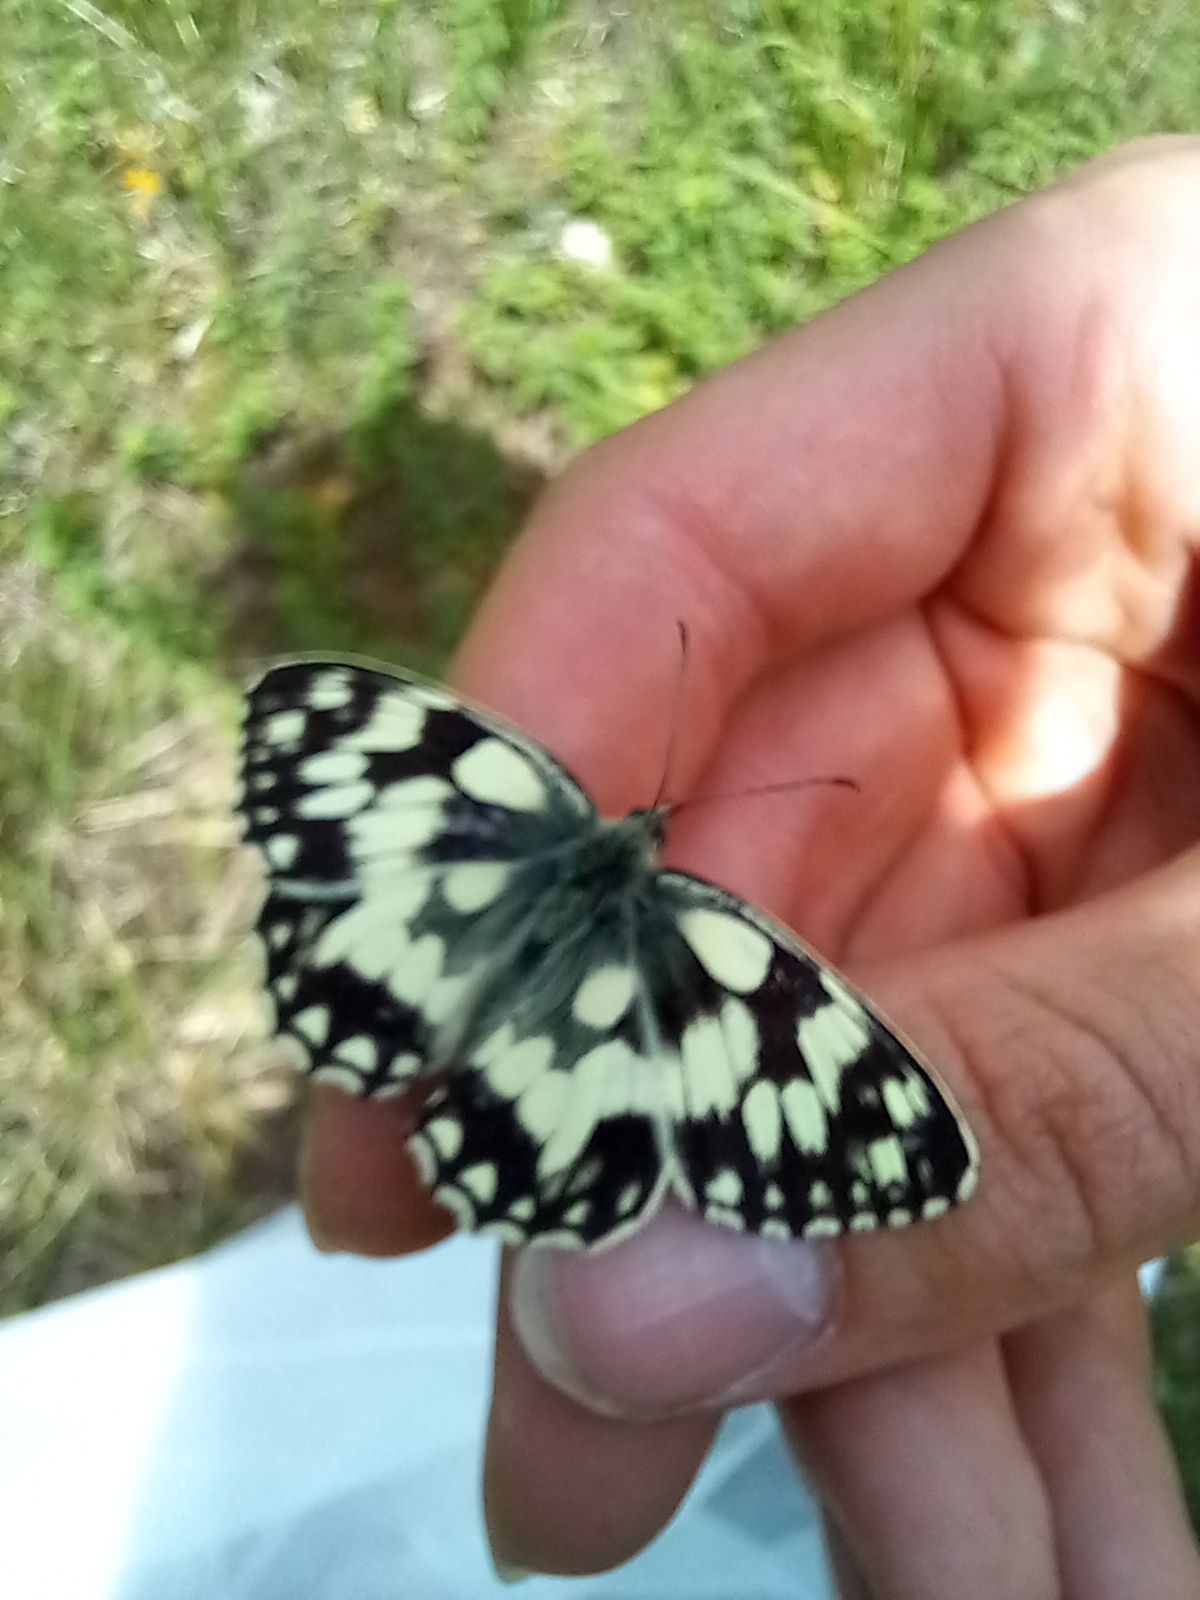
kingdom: Animalia
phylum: Arthropoda
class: Insecta
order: Lepidoptera
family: Nymphalidae
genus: Melanargia
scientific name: Melanargia galathea
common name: Marbled white
